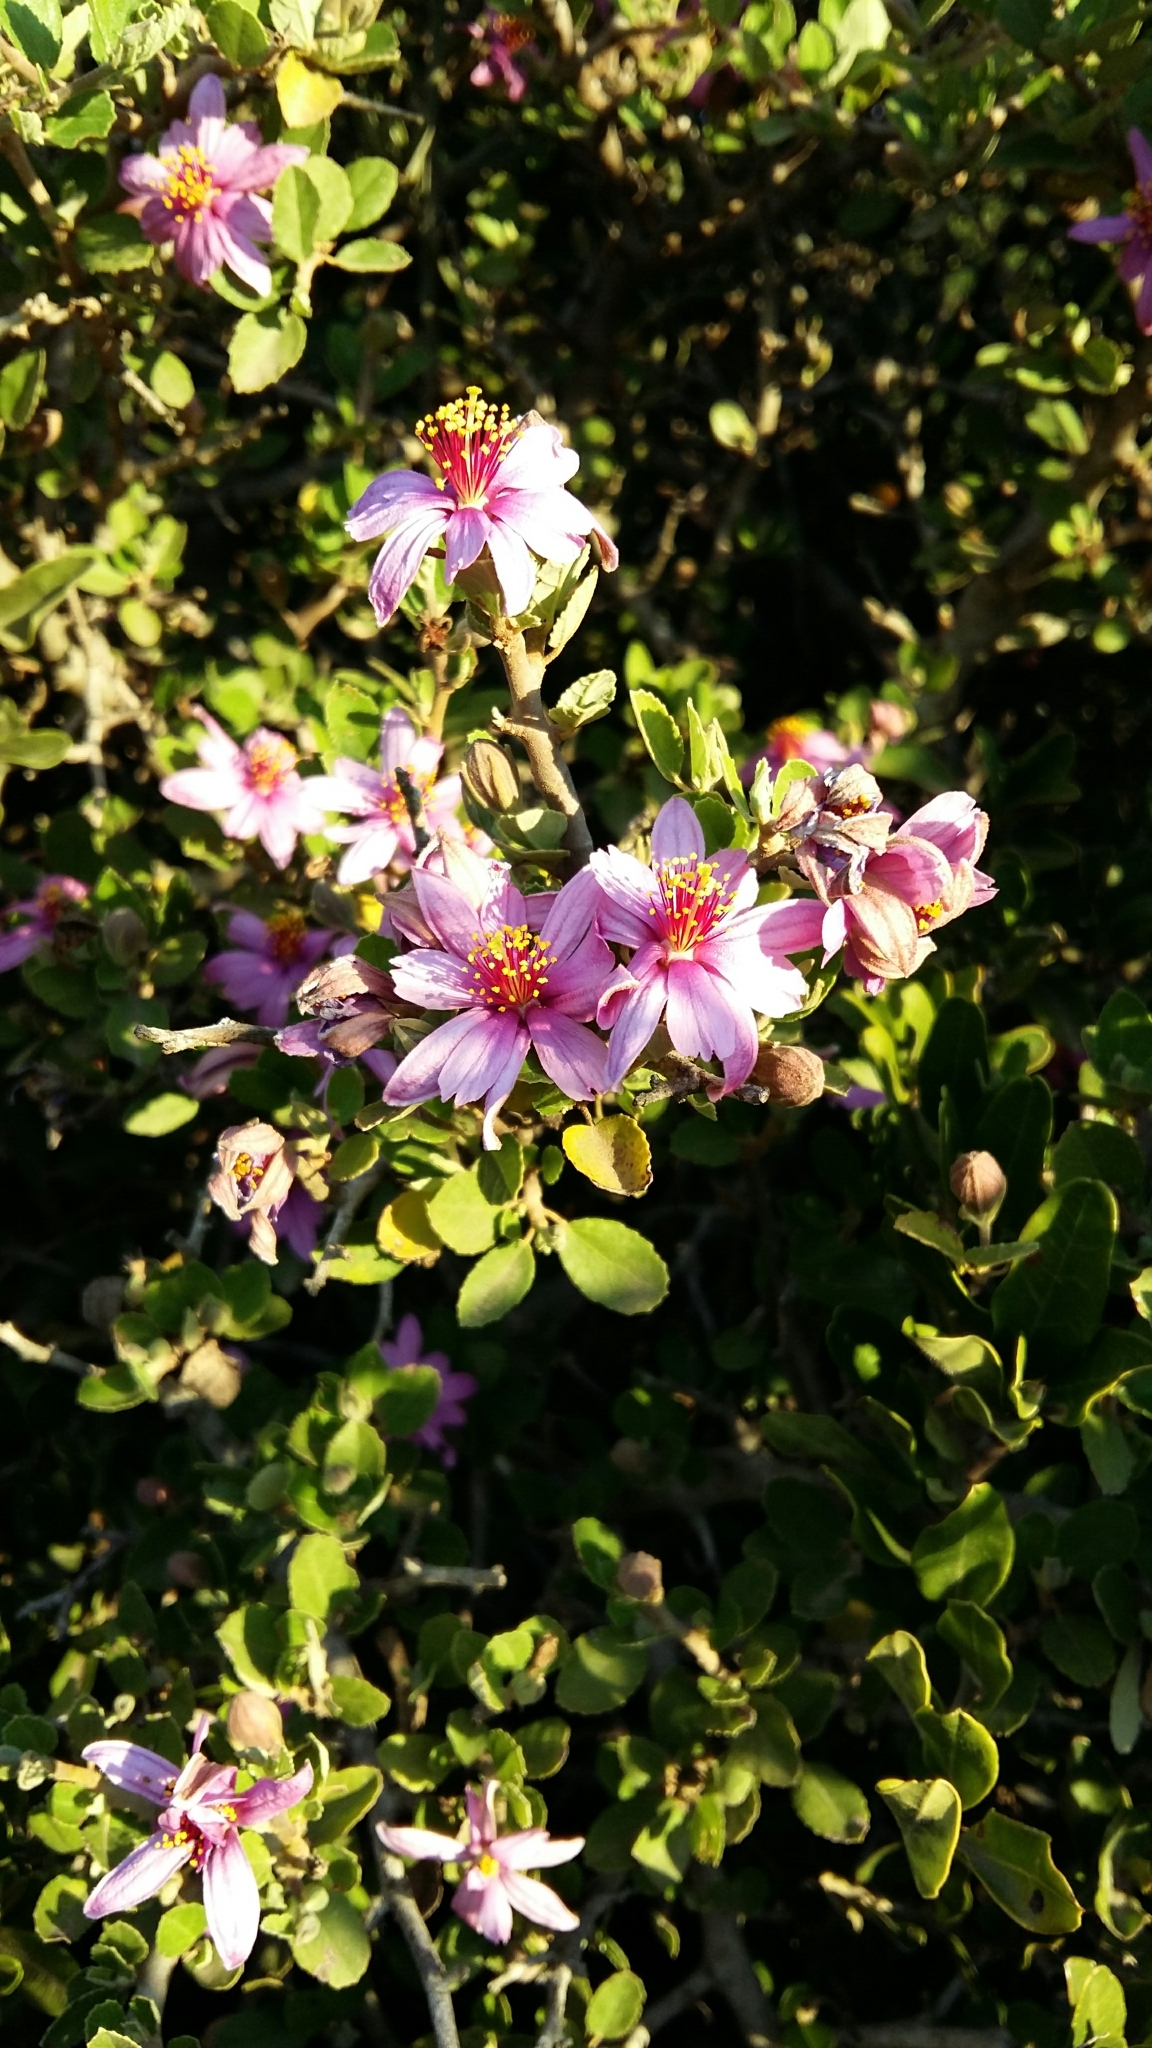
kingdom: Plantae
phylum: Tracheophyta
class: Magnoliopsida
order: Malvales
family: Malvaceae
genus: Grewia
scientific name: Grewia robusta
